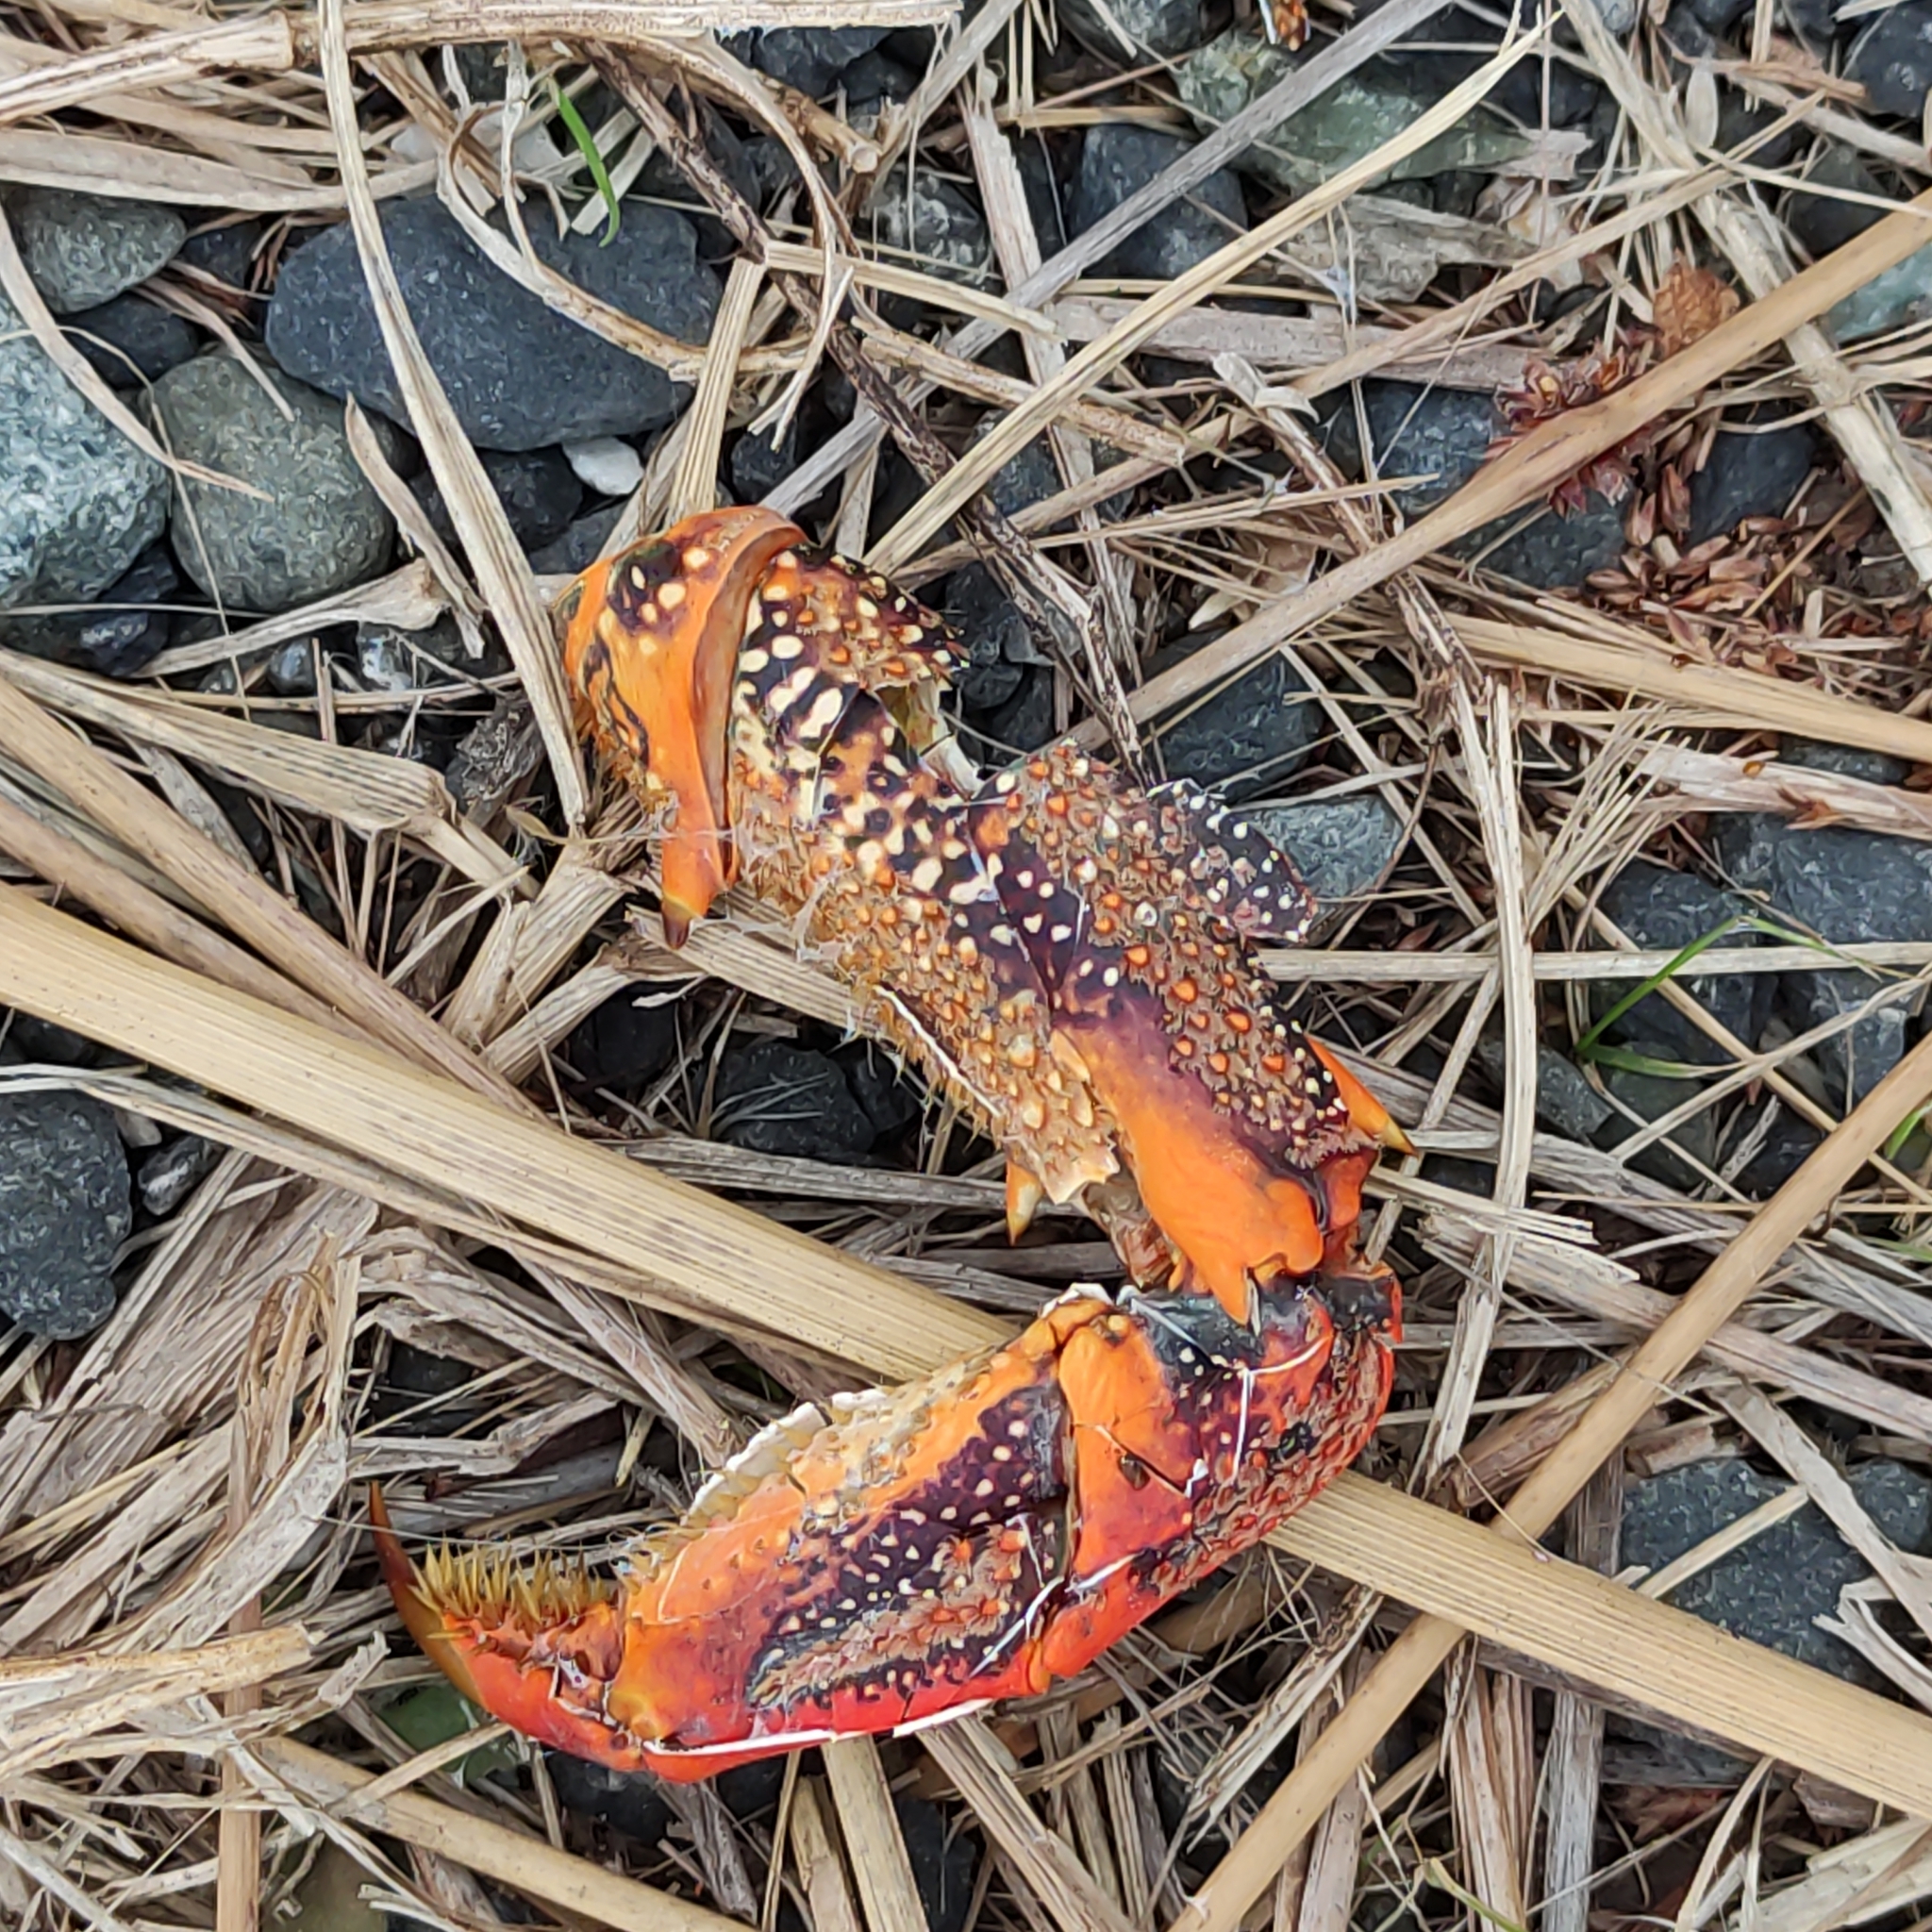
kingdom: Animalia
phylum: Arthropoda
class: Malacostraca
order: Decapoda
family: Palinuridae
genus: Jasus
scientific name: Jasus edwardsii
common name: Red rock lobster
